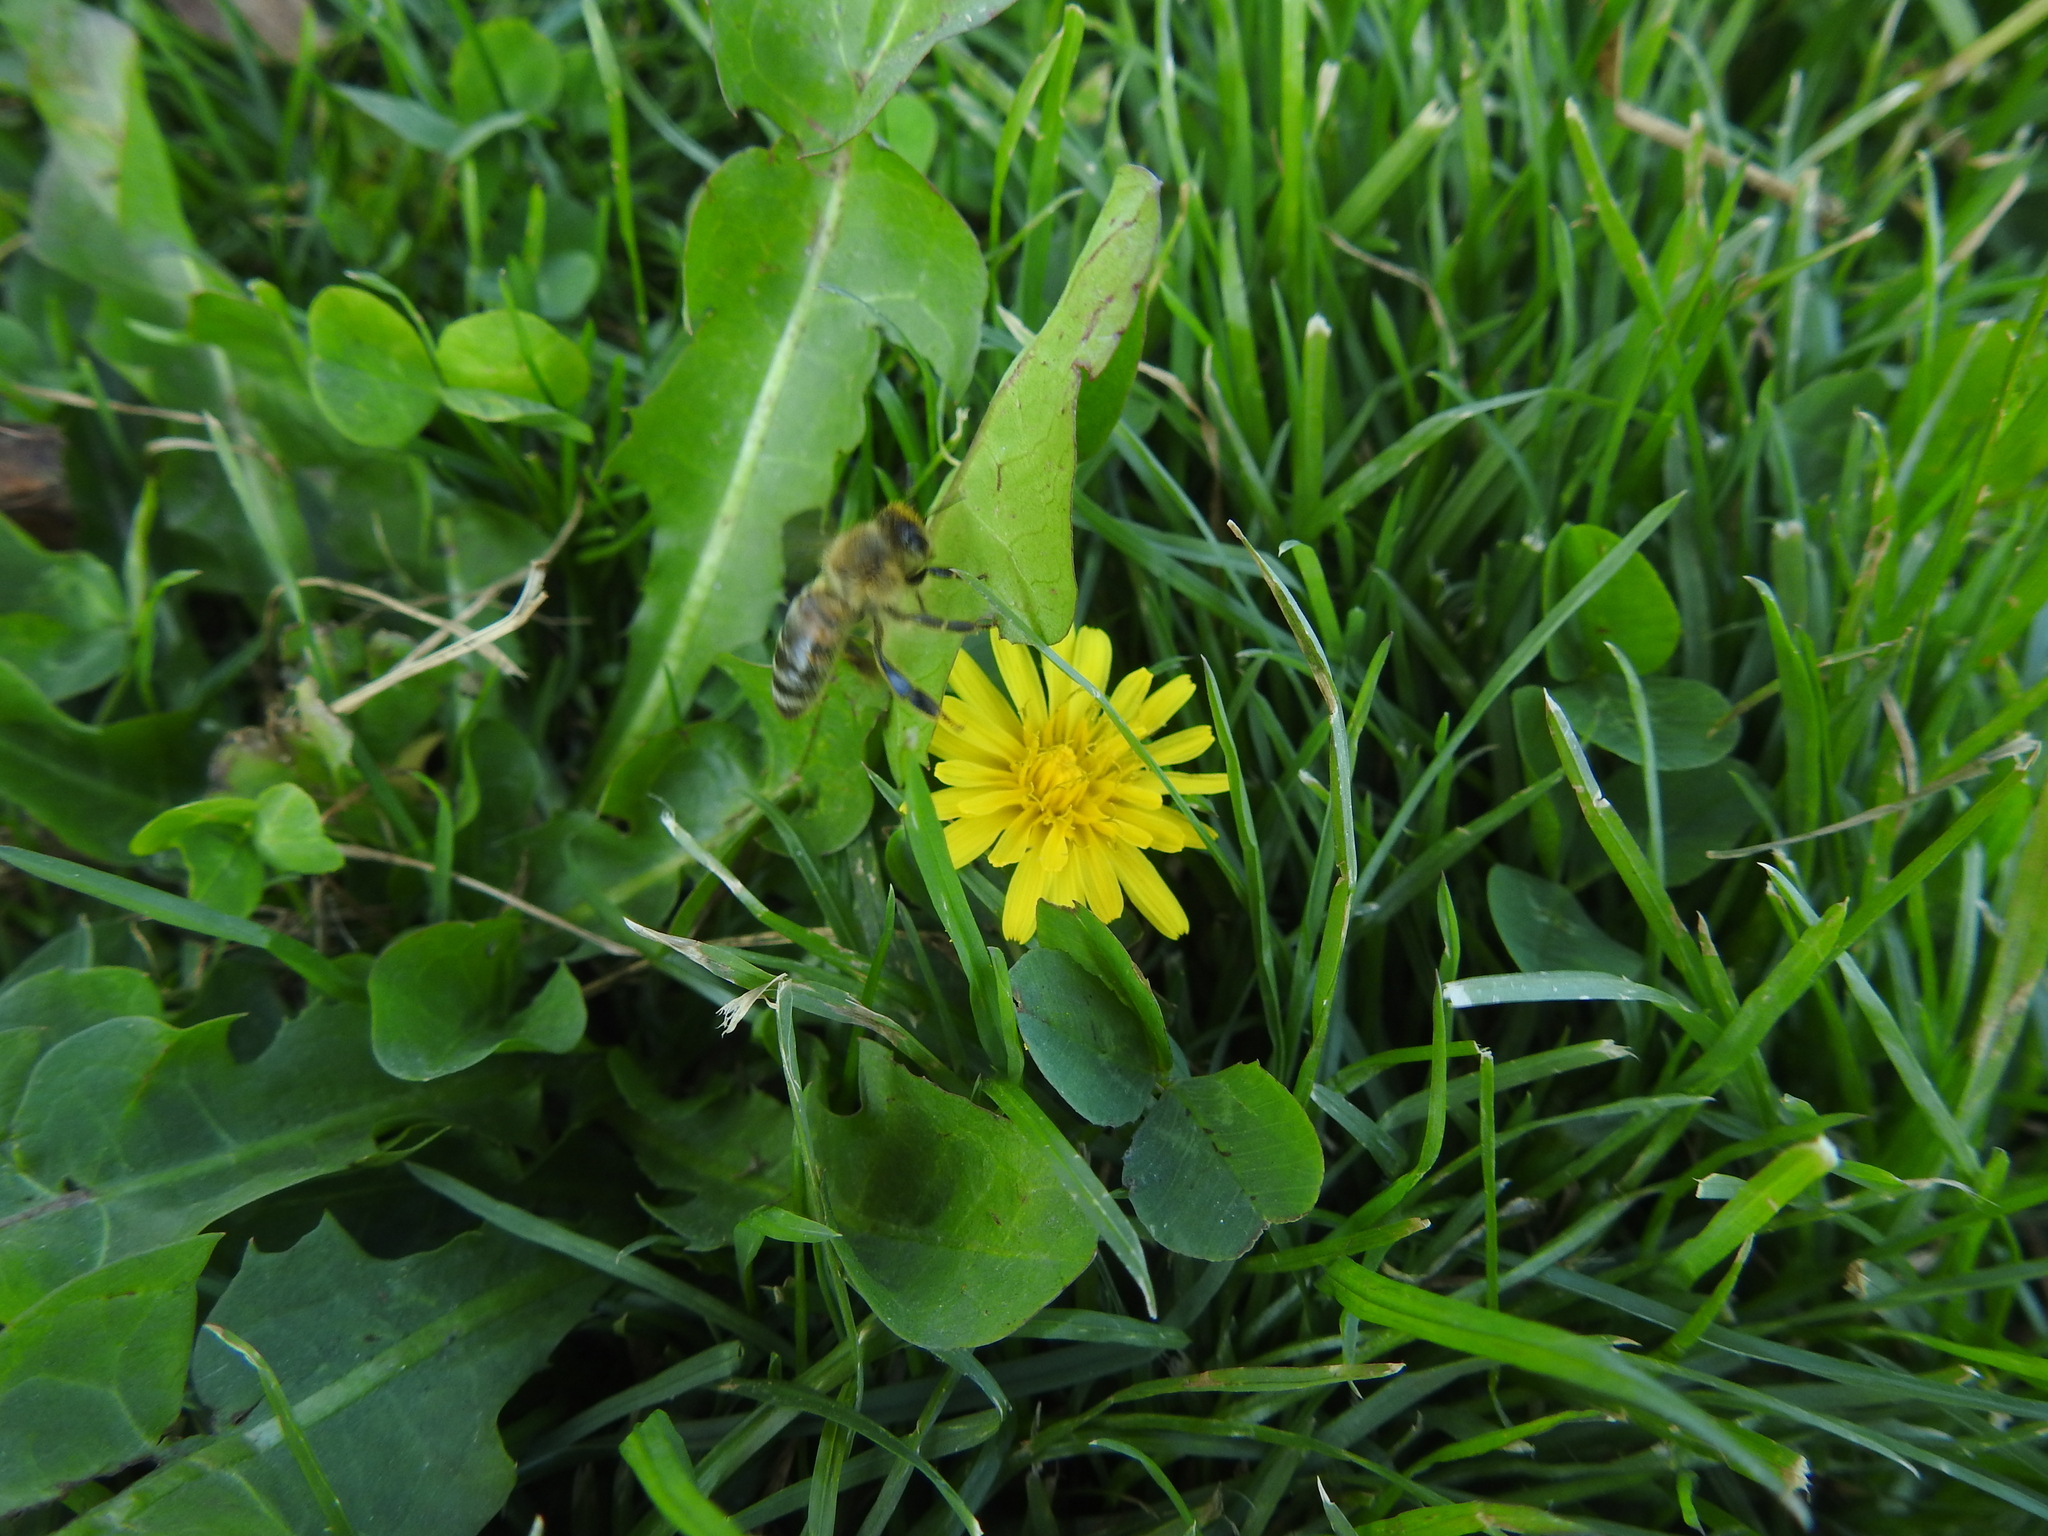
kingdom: Animalia
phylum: Arthropoda
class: Insecta
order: Hymenoptera
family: Apidae
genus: Apis
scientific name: Apis mellifera
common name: Honey bee
